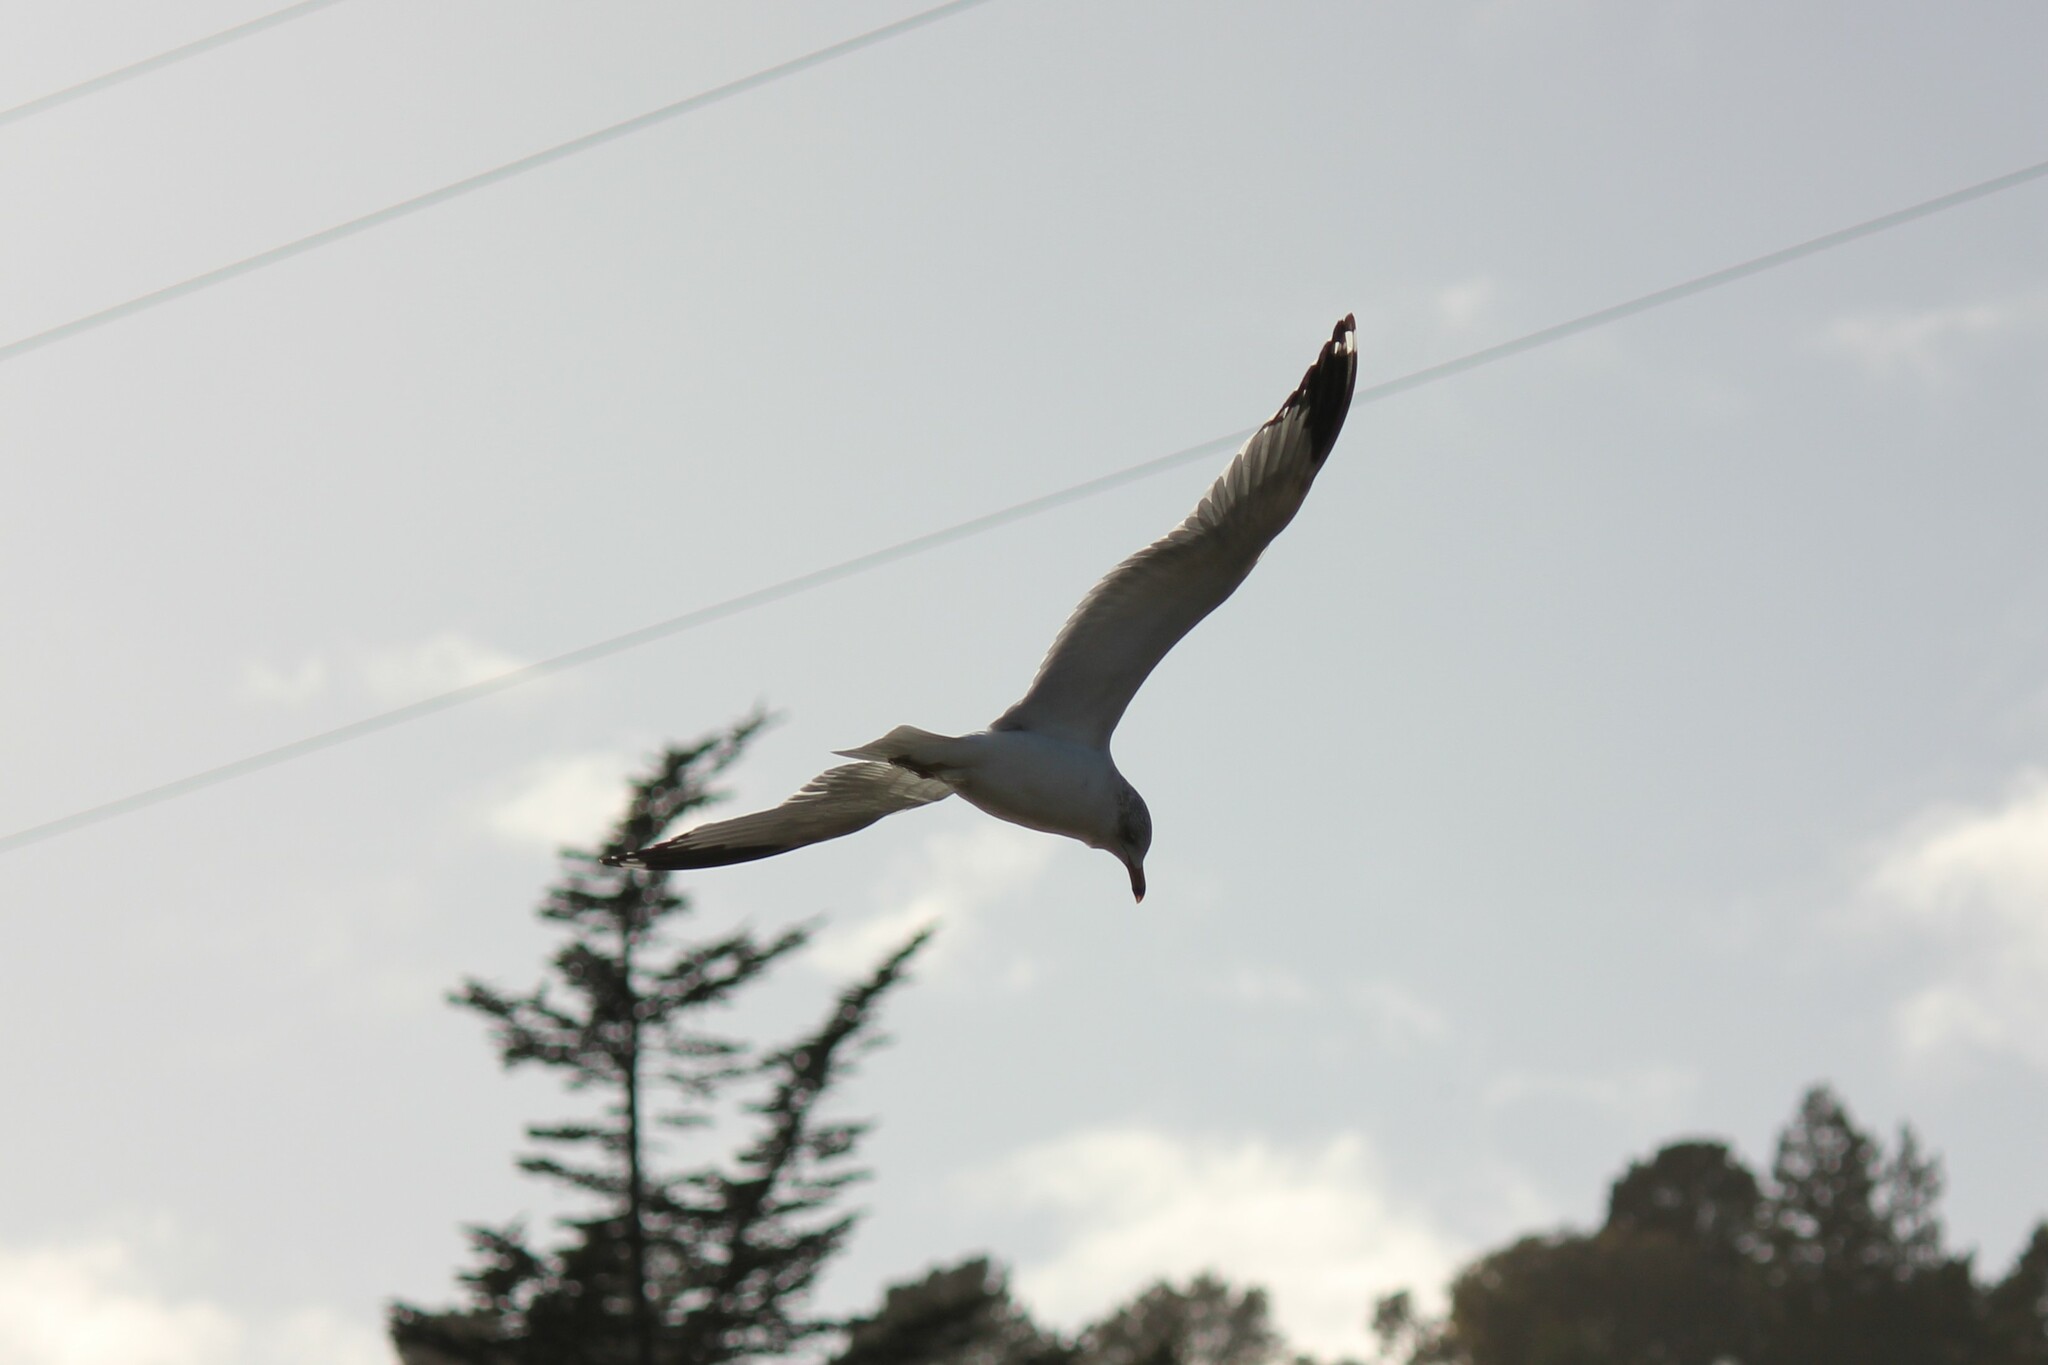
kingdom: Animalia
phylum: Chordata
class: Aves
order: Charadriiformes
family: Laridae
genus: Larus
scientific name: Larus delawarensis
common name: Ring-billed gull
